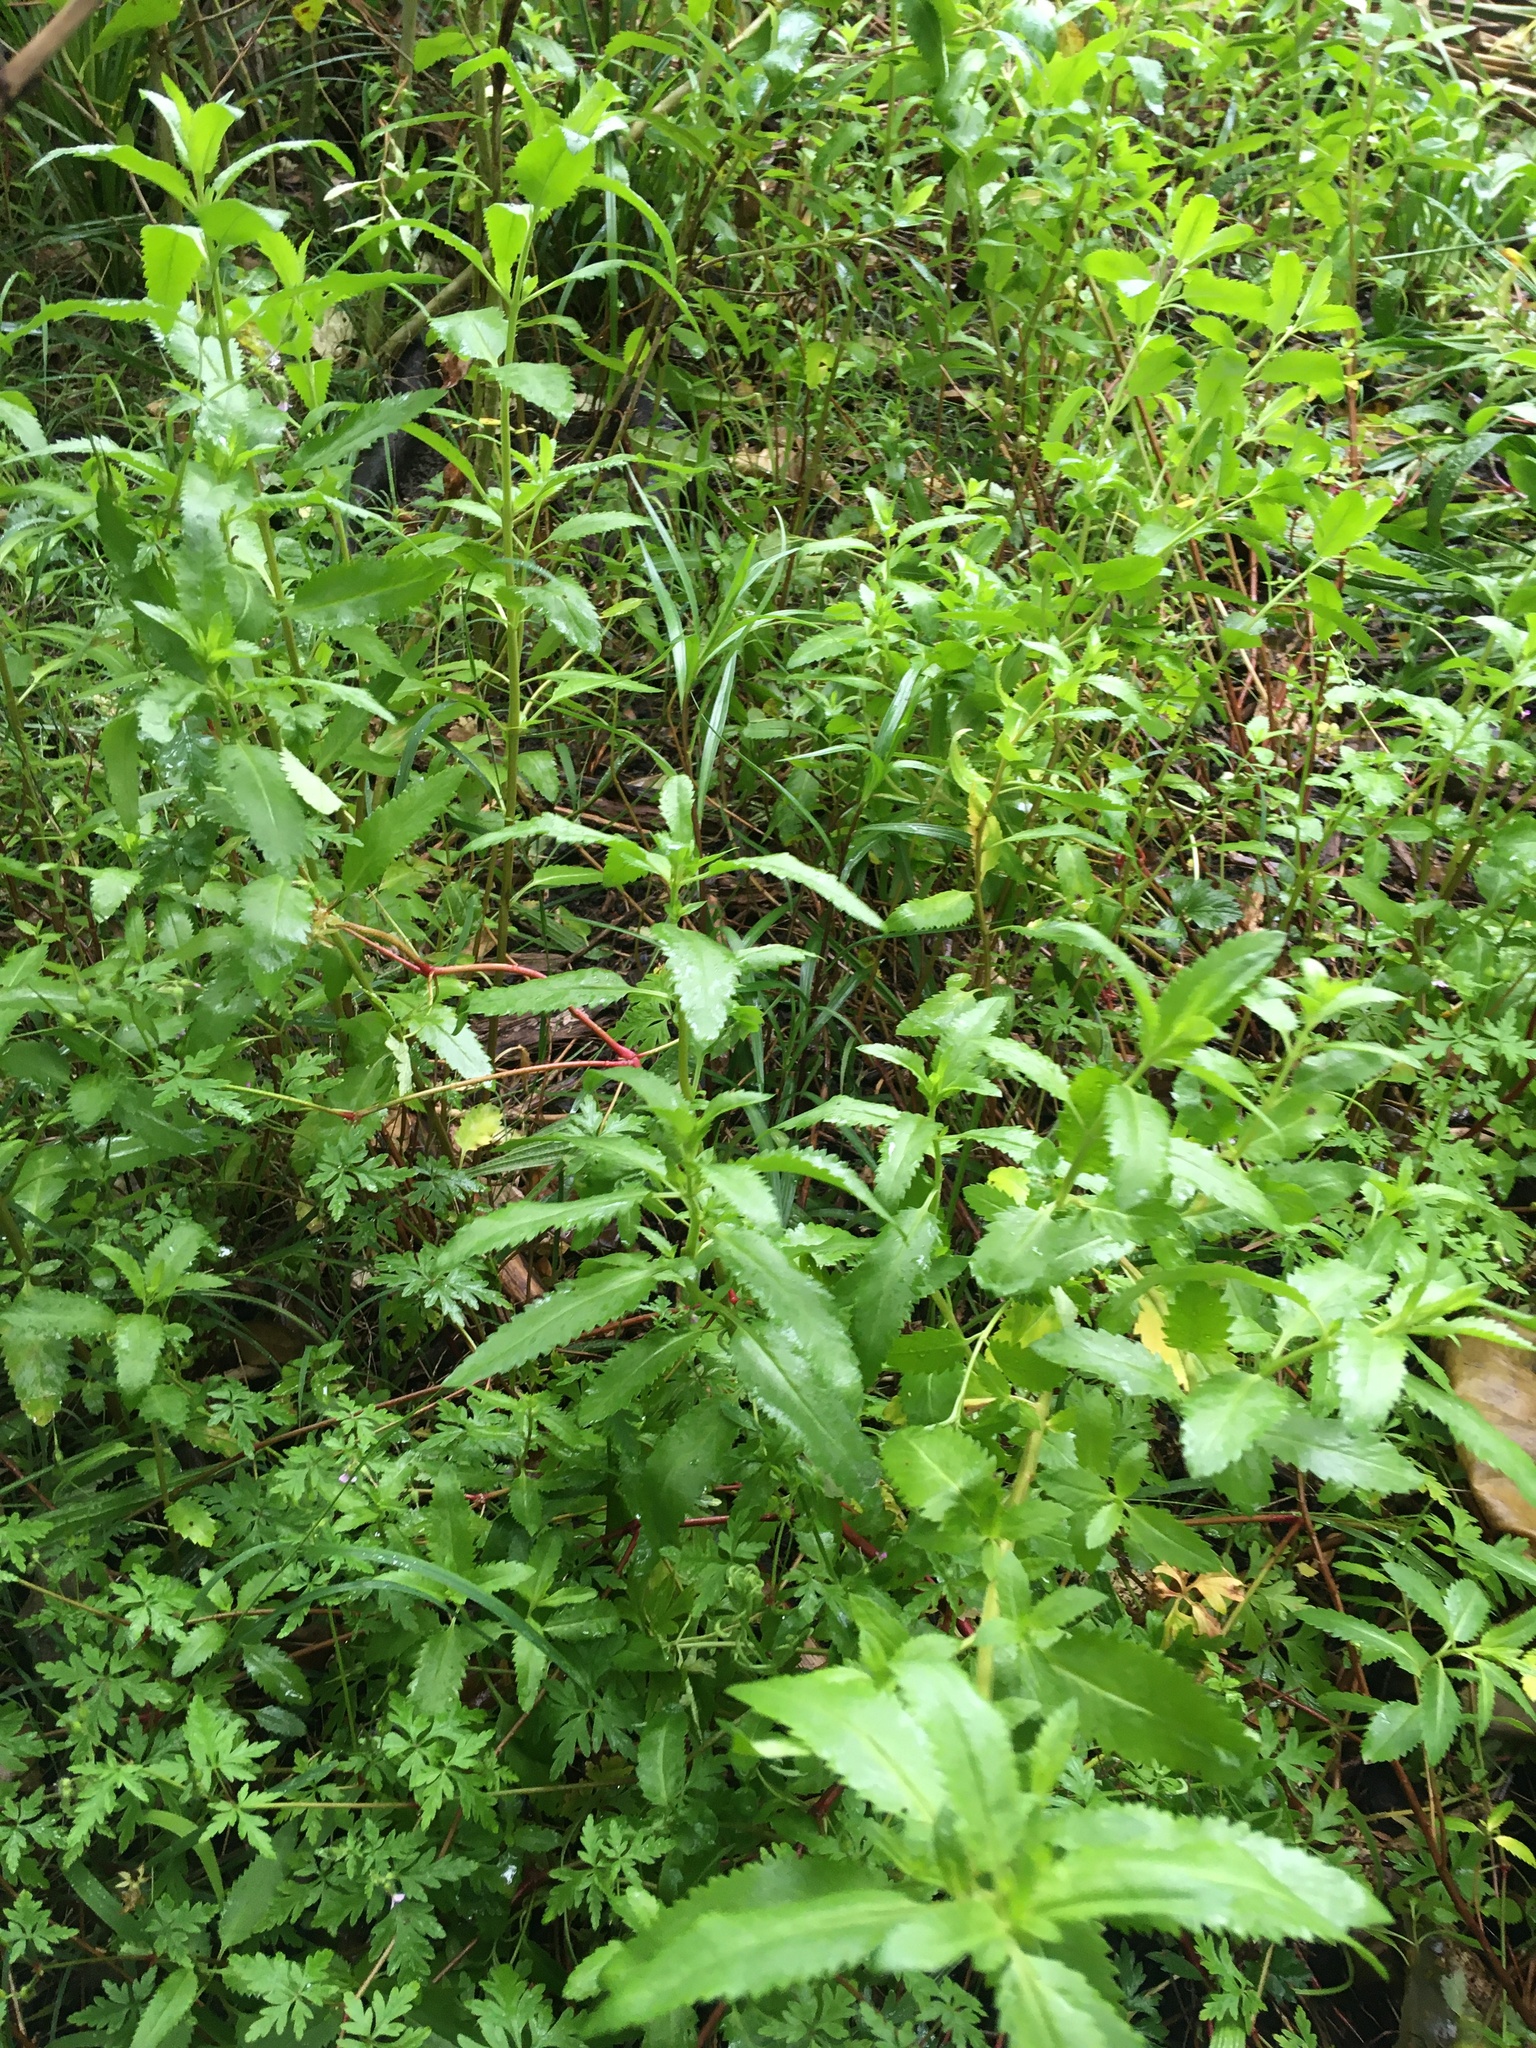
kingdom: Plantae
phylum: Tracheophyta
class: Magnoliopsida
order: Saxifragales
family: Haloragaceae
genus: Haloragis
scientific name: Haloragis erecta
